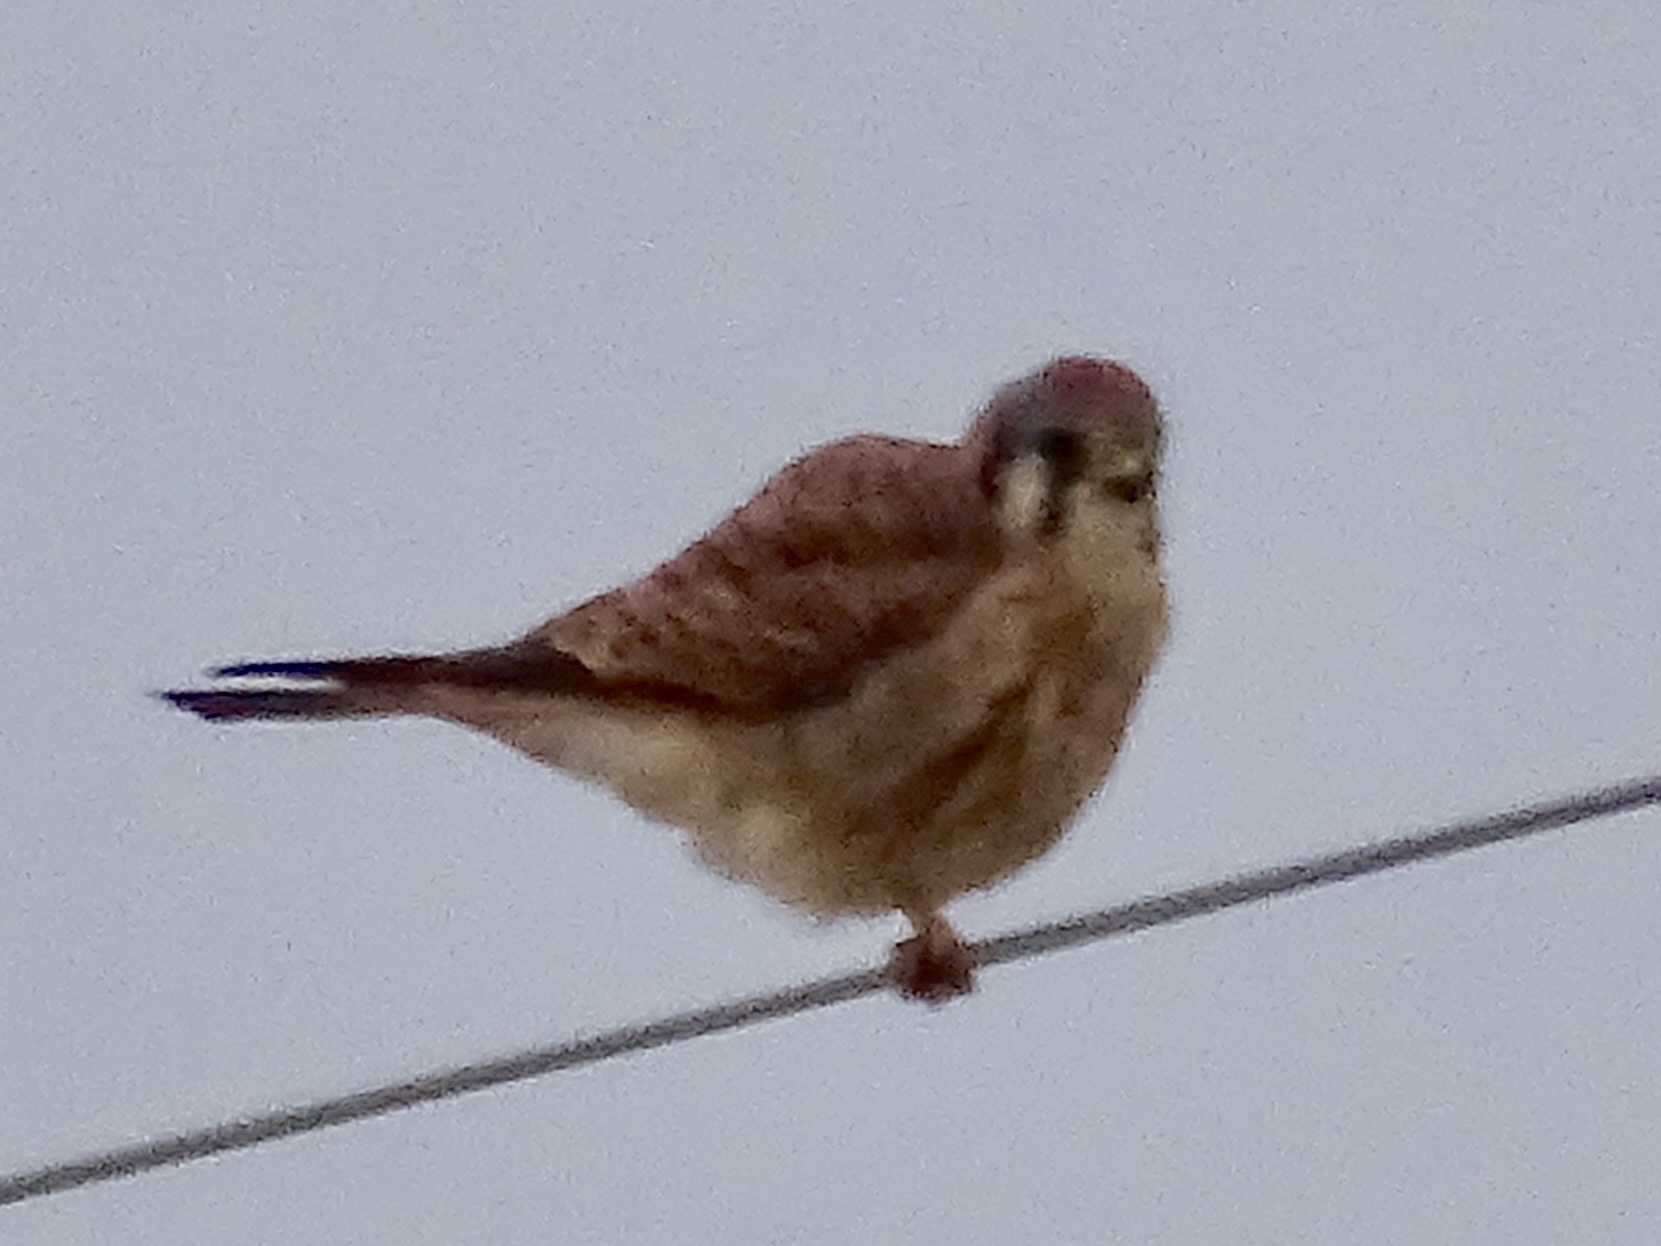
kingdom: Animalia
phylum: Chordata
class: Aves
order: Falconiformes
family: Falconidae
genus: Falco
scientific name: Falco sparverius
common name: American kestrel
